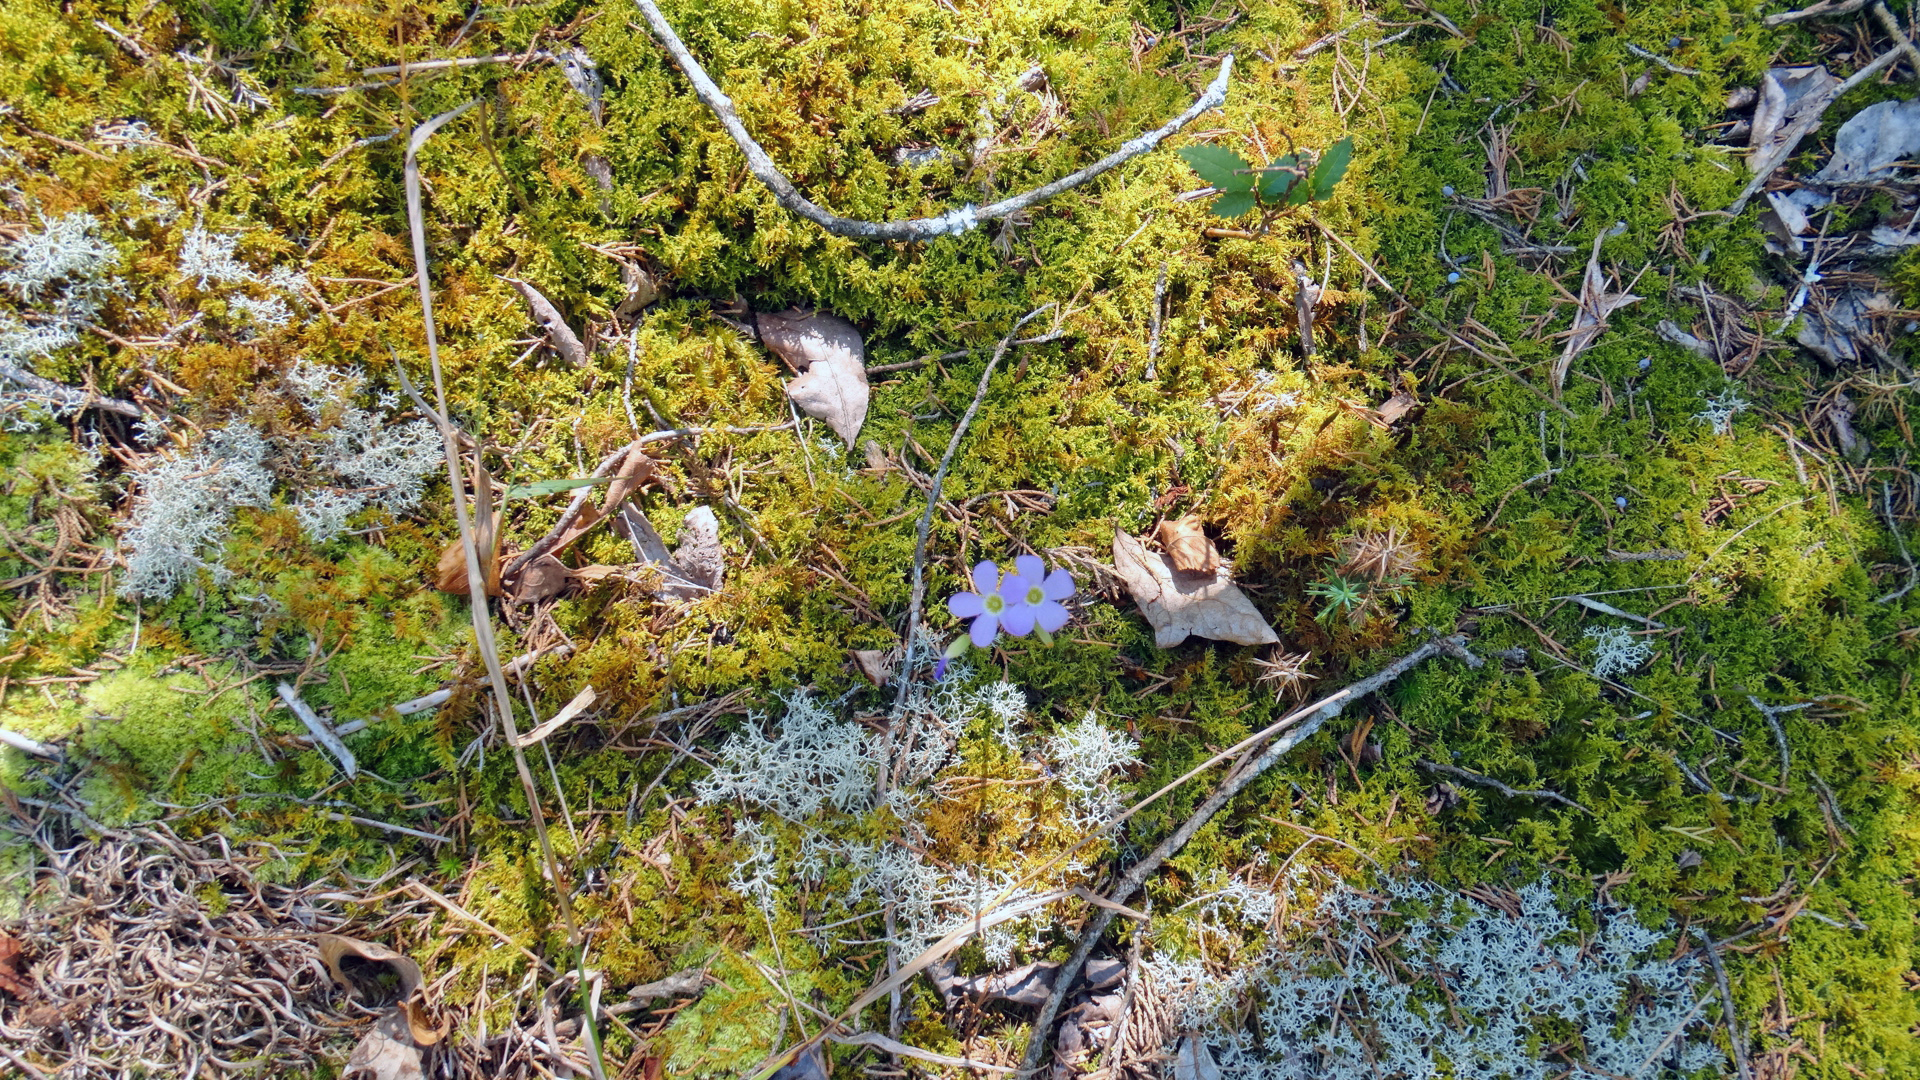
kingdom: Fungi
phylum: Ascomycota
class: Lecanoromycetes
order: Lecanorales
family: Cladoniaceae
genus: Cladonia
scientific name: Cladonia subtenuis
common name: Dixie reindeer lichen
